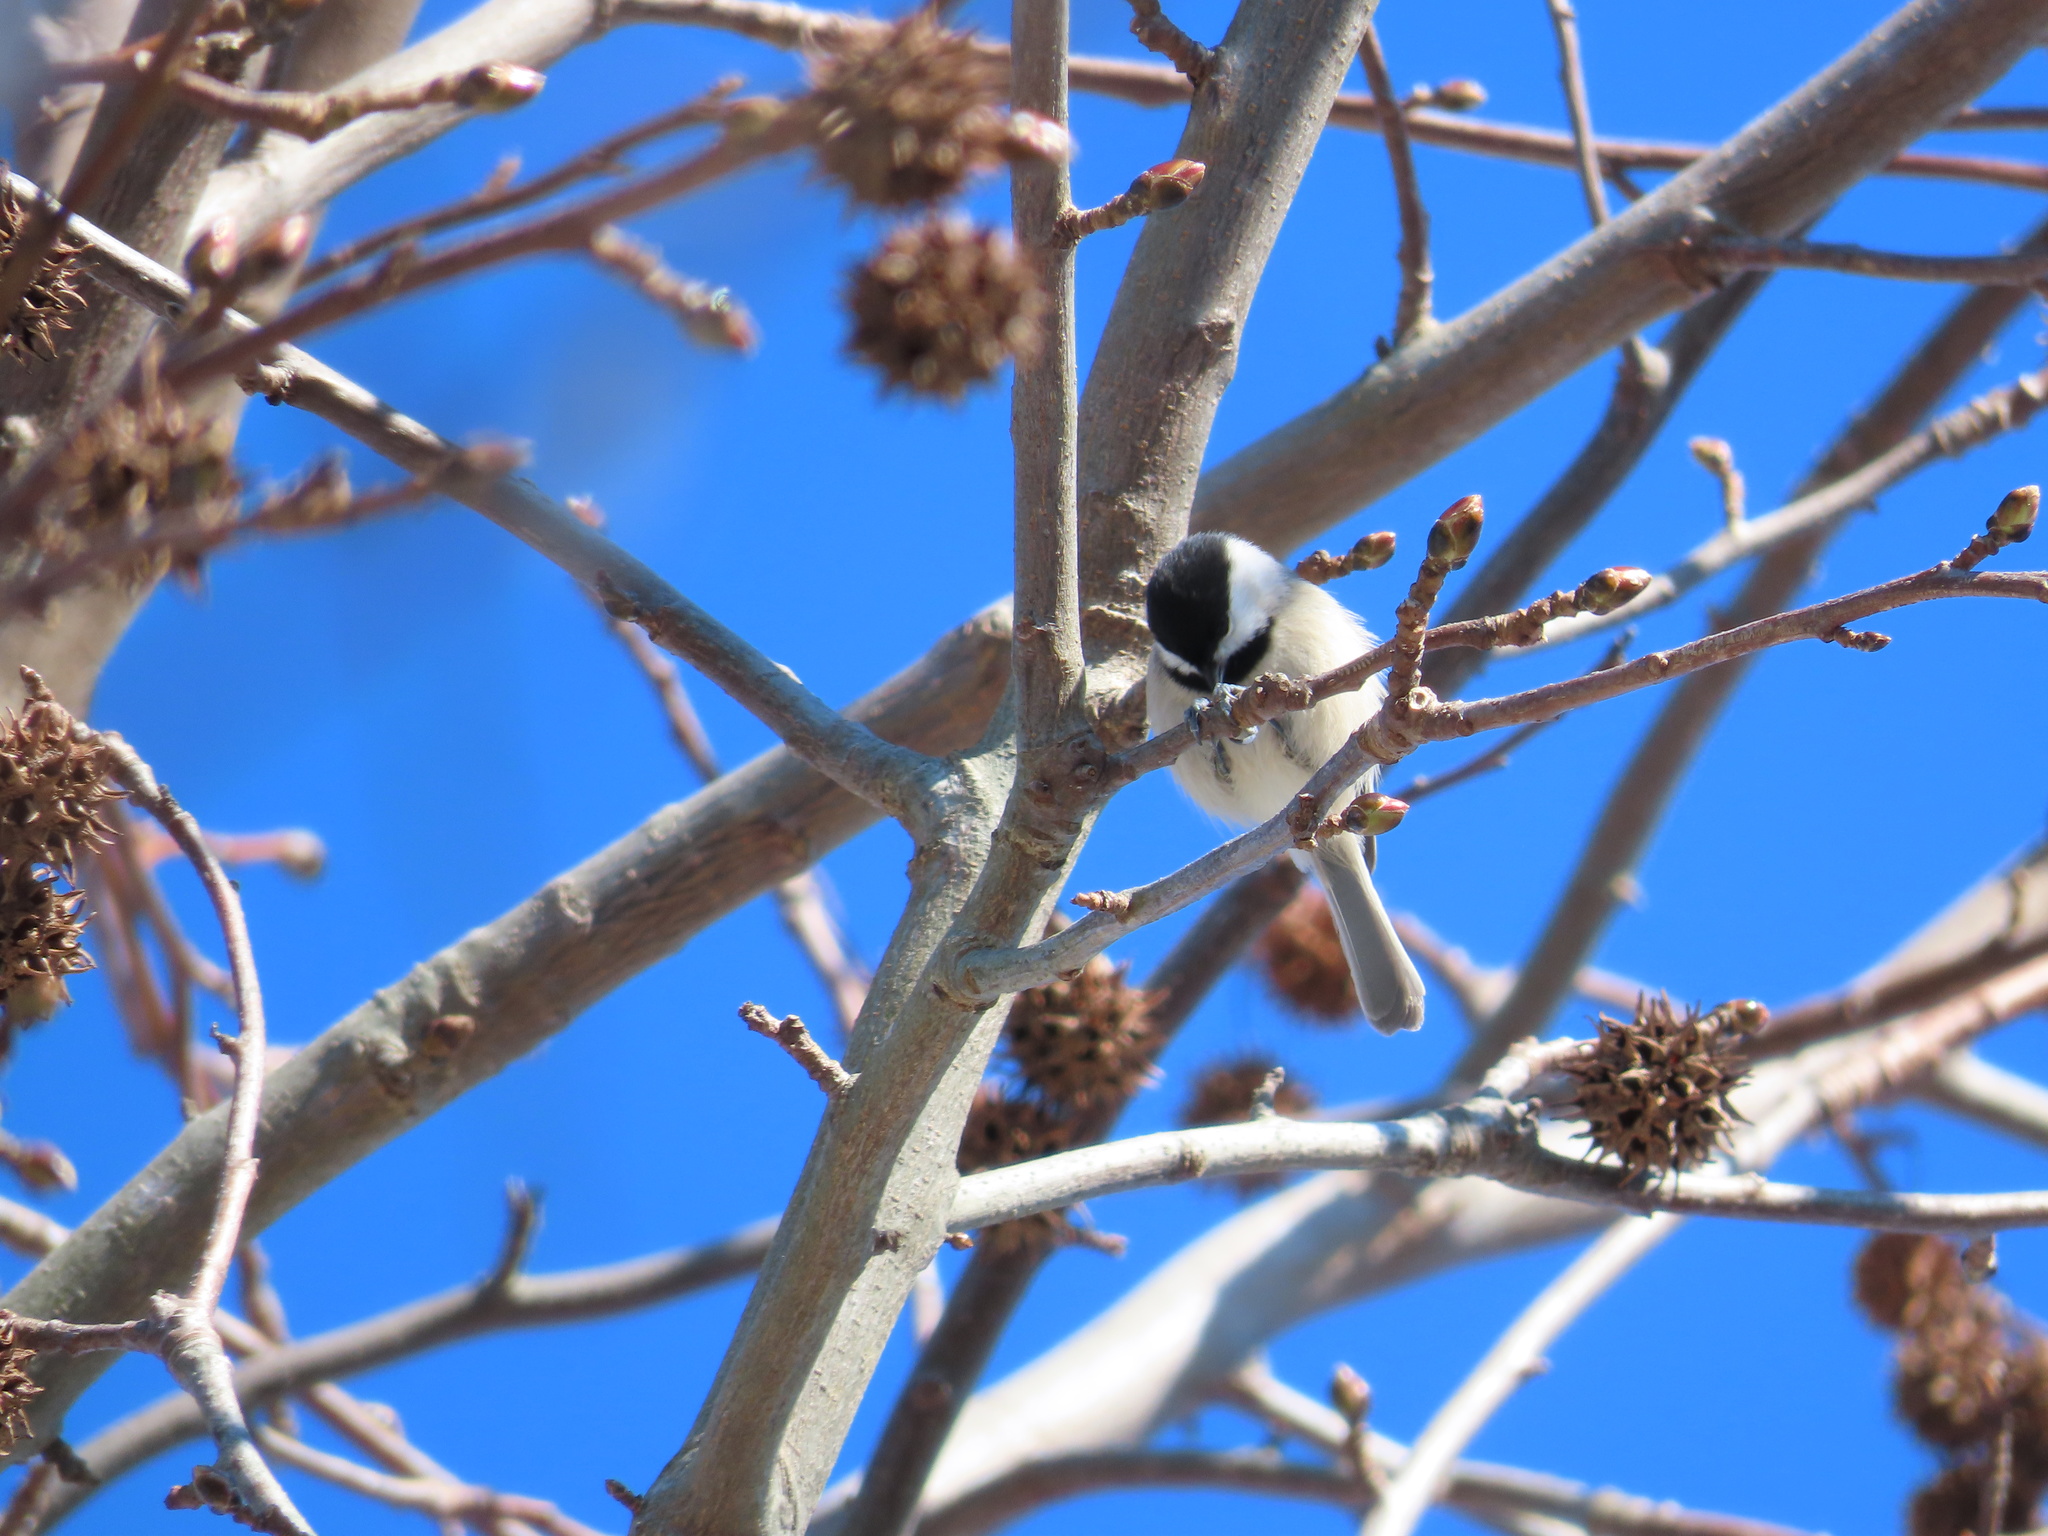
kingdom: Animalia
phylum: Chordata
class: Aves
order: Passeriformes
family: Paridae
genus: Poecile
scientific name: Poecile carolinensis
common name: Carolina chickadee
